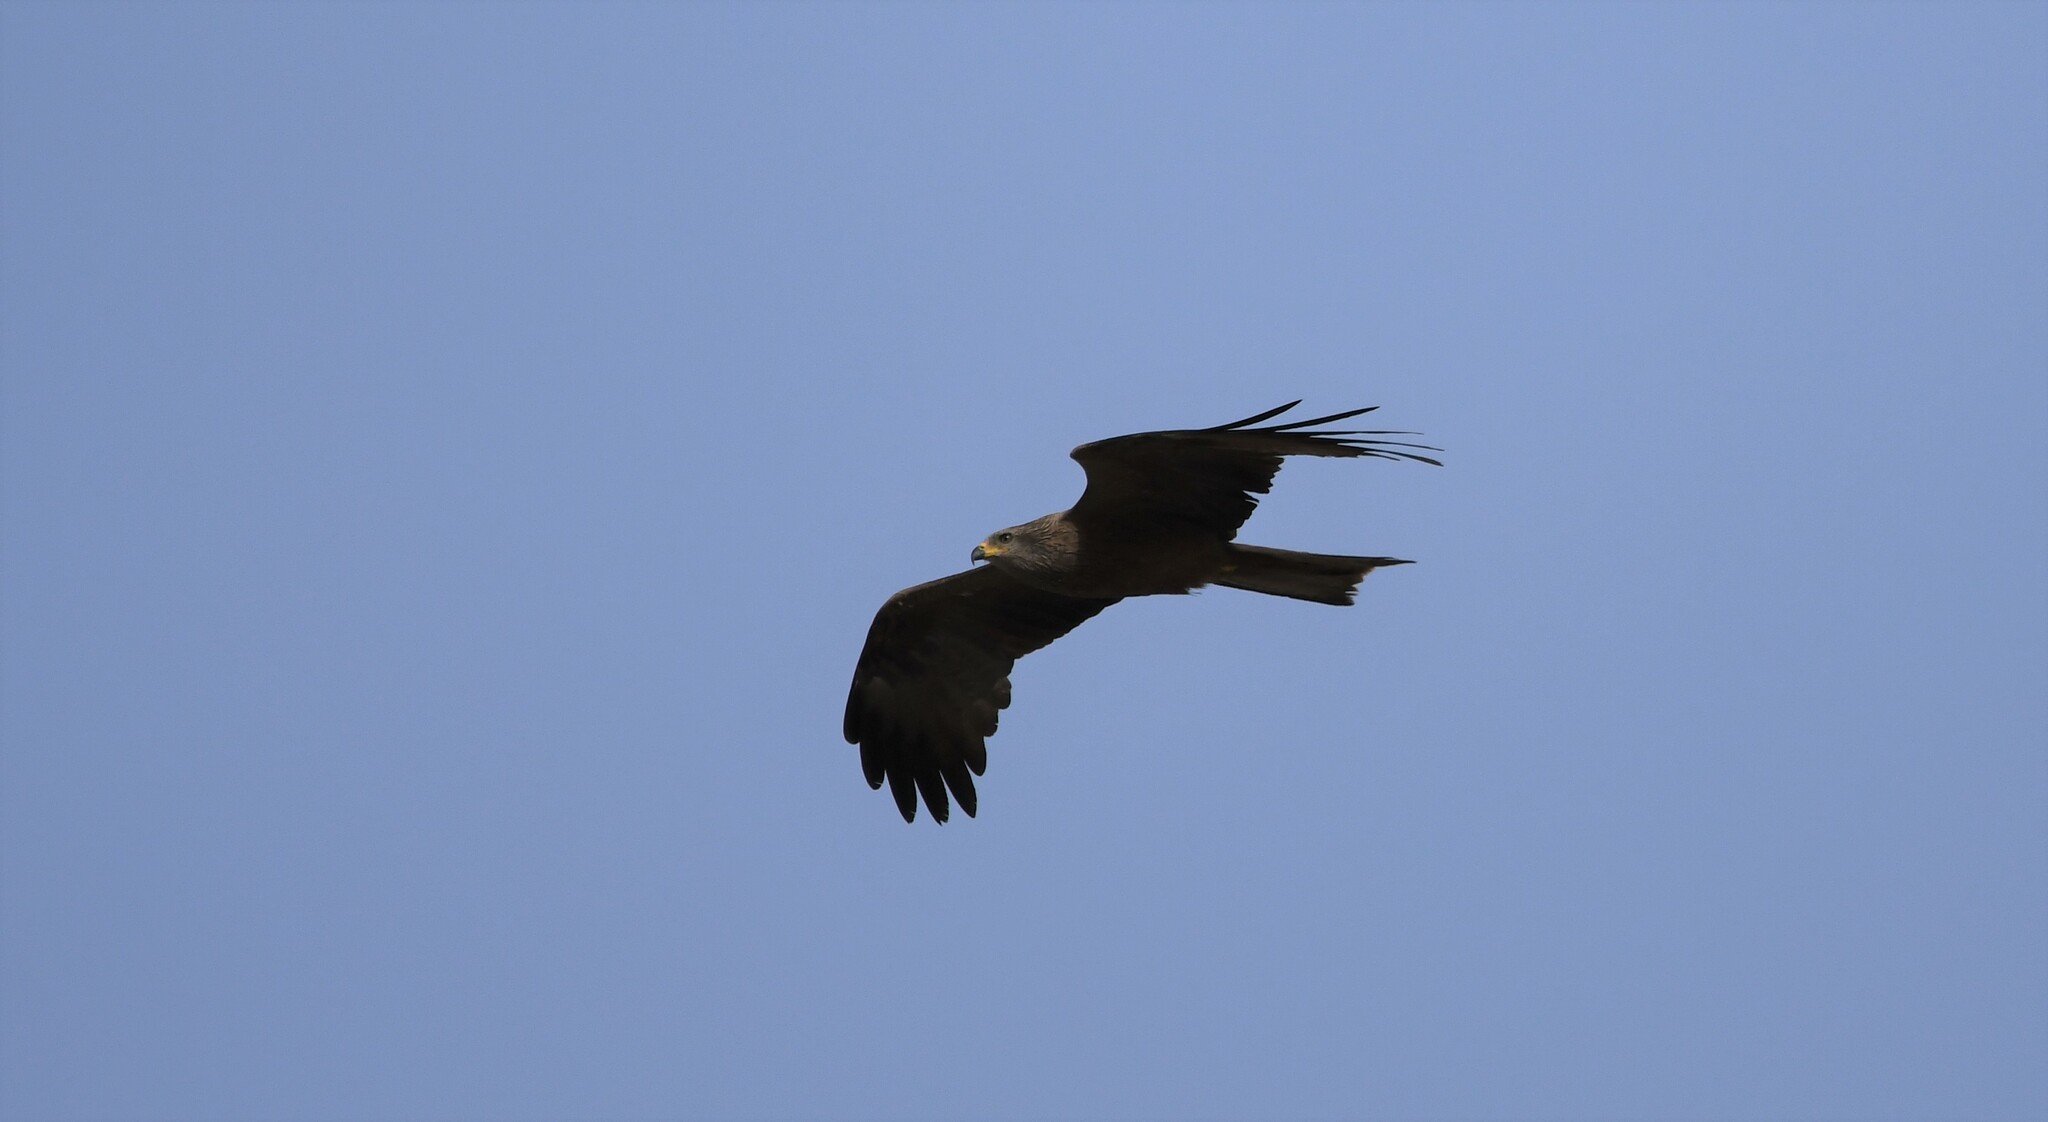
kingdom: Animalia
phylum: Chordata
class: Aves
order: Accipitriformes
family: Accipitridae
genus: Milvus
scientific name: Milvus migrans
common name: Black kite
